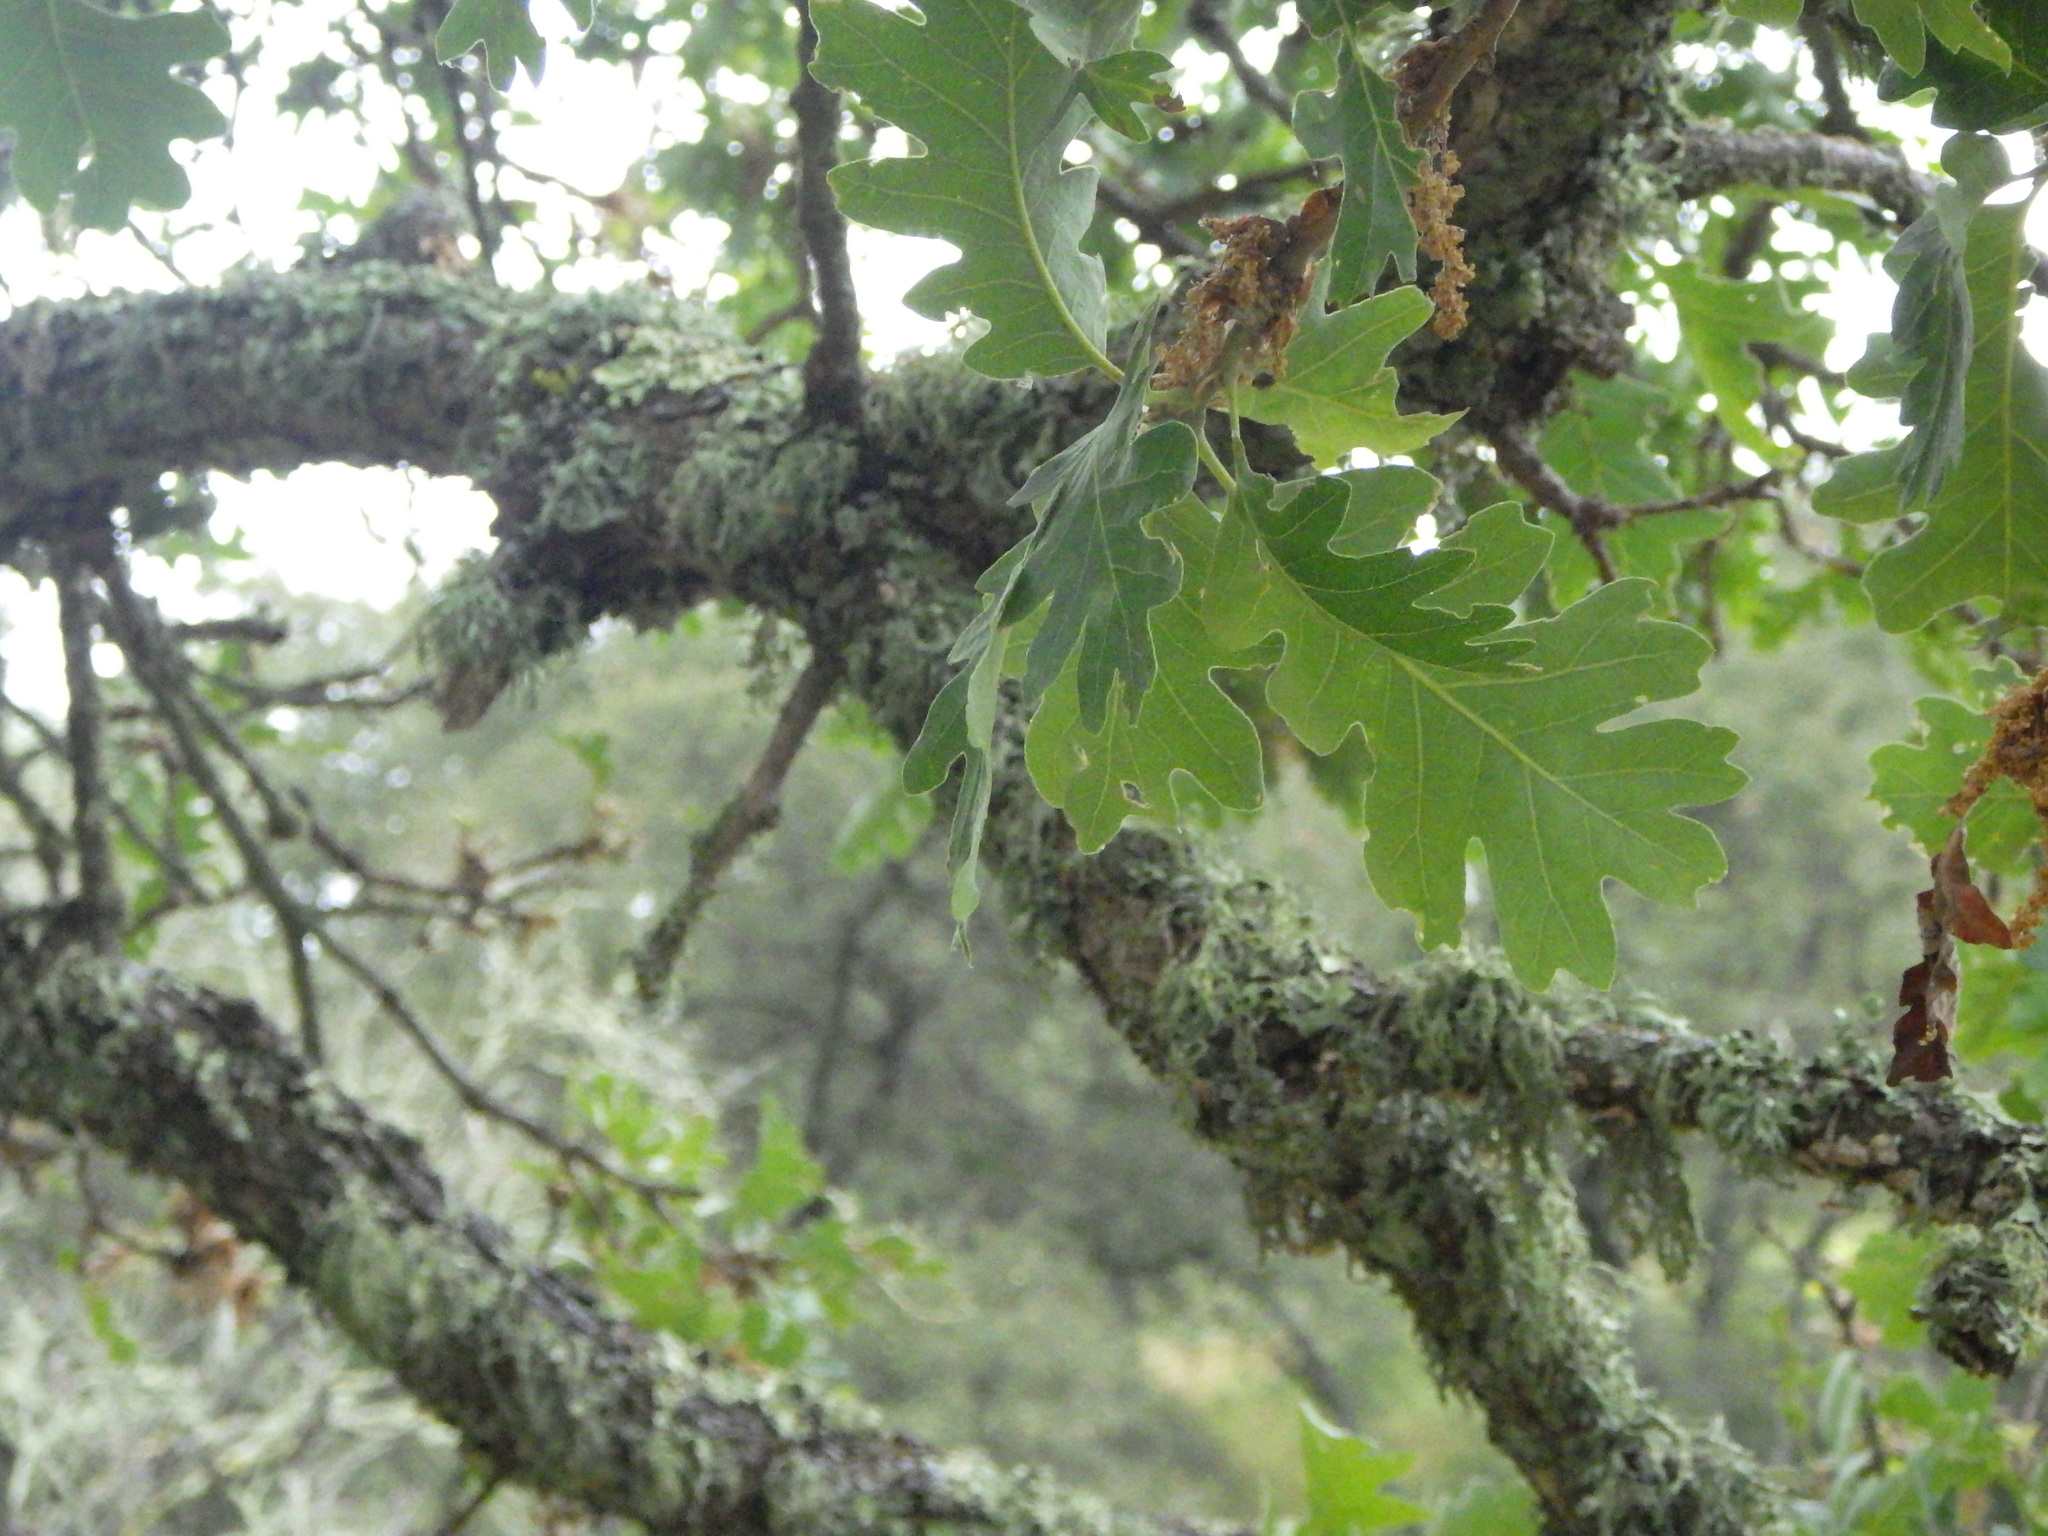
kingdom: Plantae
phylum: Tracheophyta
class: Magnoliopsida
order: Fagales
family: Fagaceae
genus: Quercus
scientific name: Quercus lobata
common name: Valley oak
